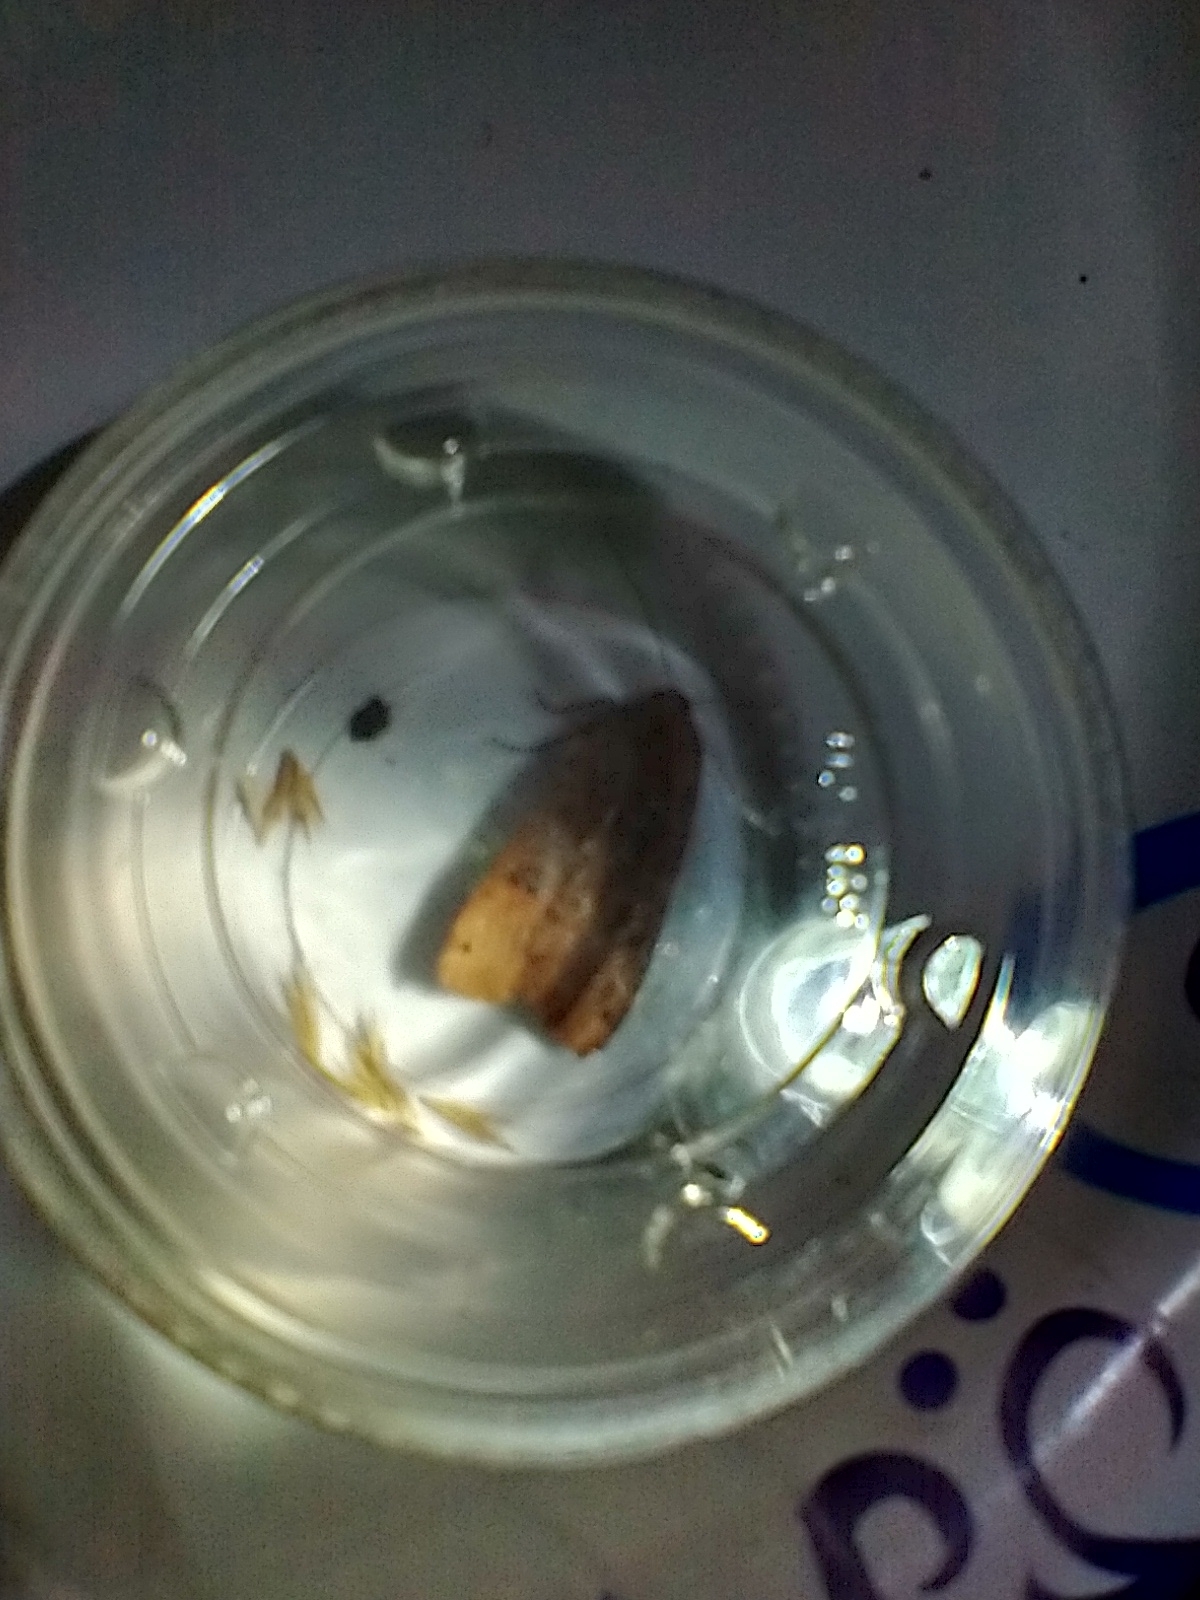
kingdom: Animalia
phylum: Arthropoda
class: Insecta
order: Lepidoptera
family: Noctuidae
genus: Noctua
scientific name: Noctua pronuba
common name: Large yellow underwing
